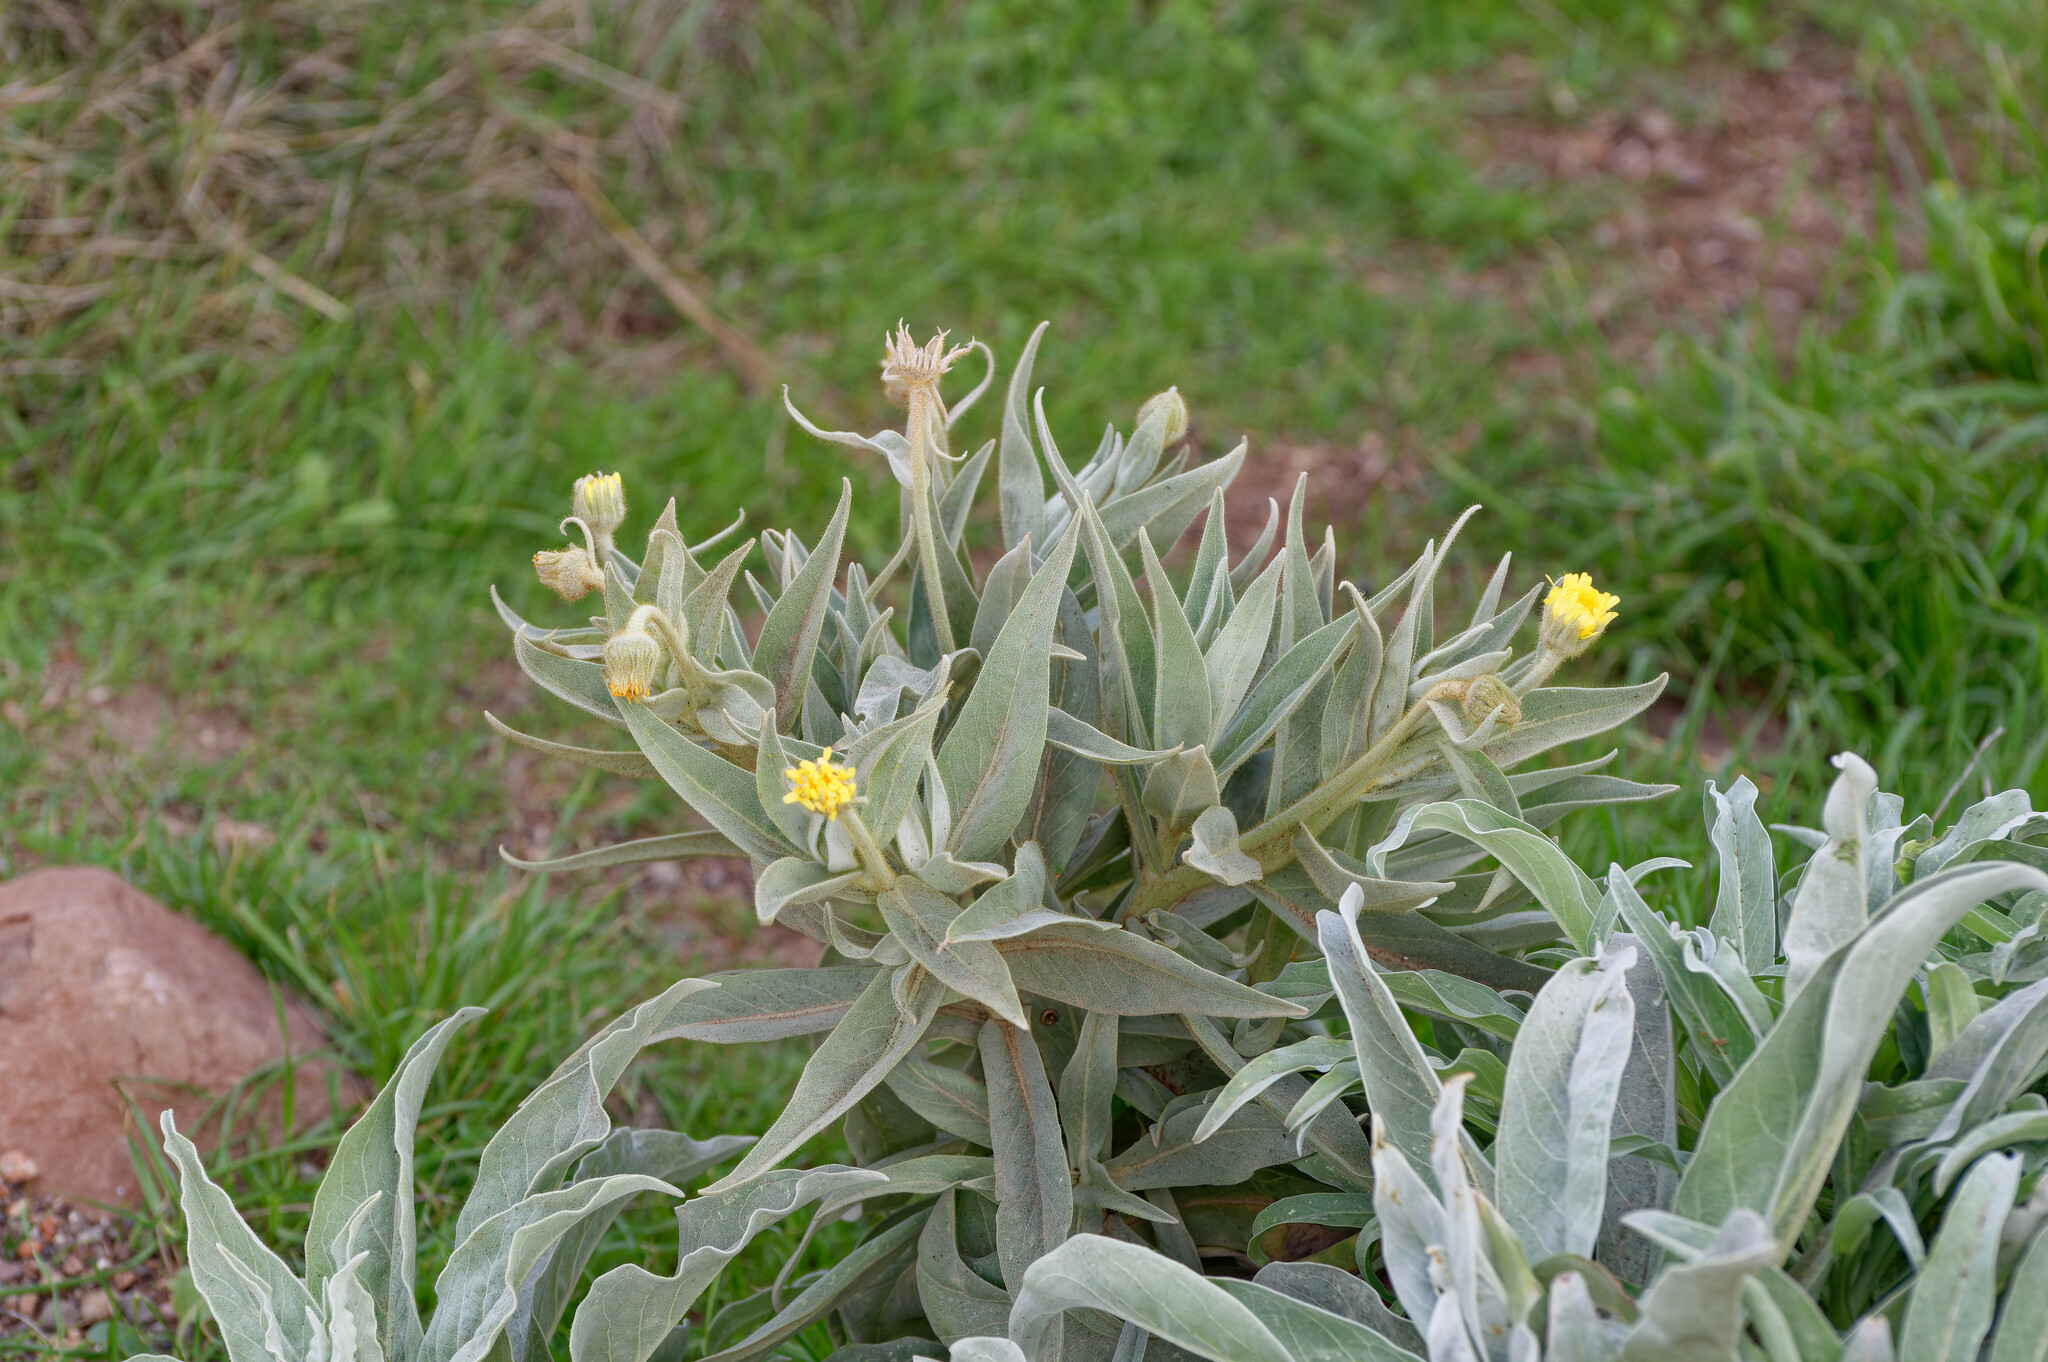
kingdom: Plantae
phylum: Tracheophyta
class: Magnoliopsida
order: Asterales
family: Asteraceae
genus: Andryala
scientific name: Andryala glandulosa
